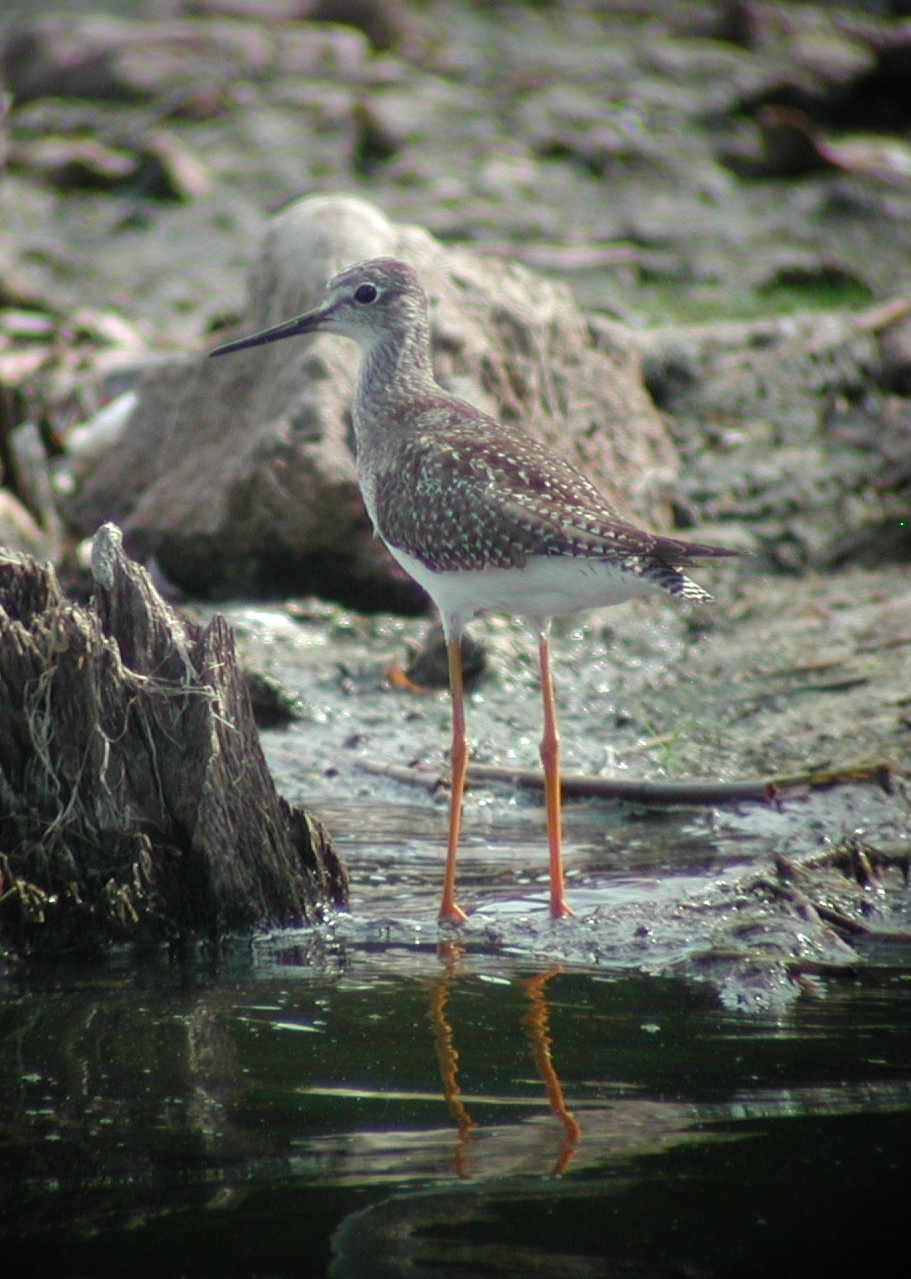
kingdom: Animalia
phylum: Chordata
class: Aves
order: Charadriiformes
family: Scolopacidae
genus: Tringa
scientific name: Tringa flavipes
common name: Lesser yellowlegs
